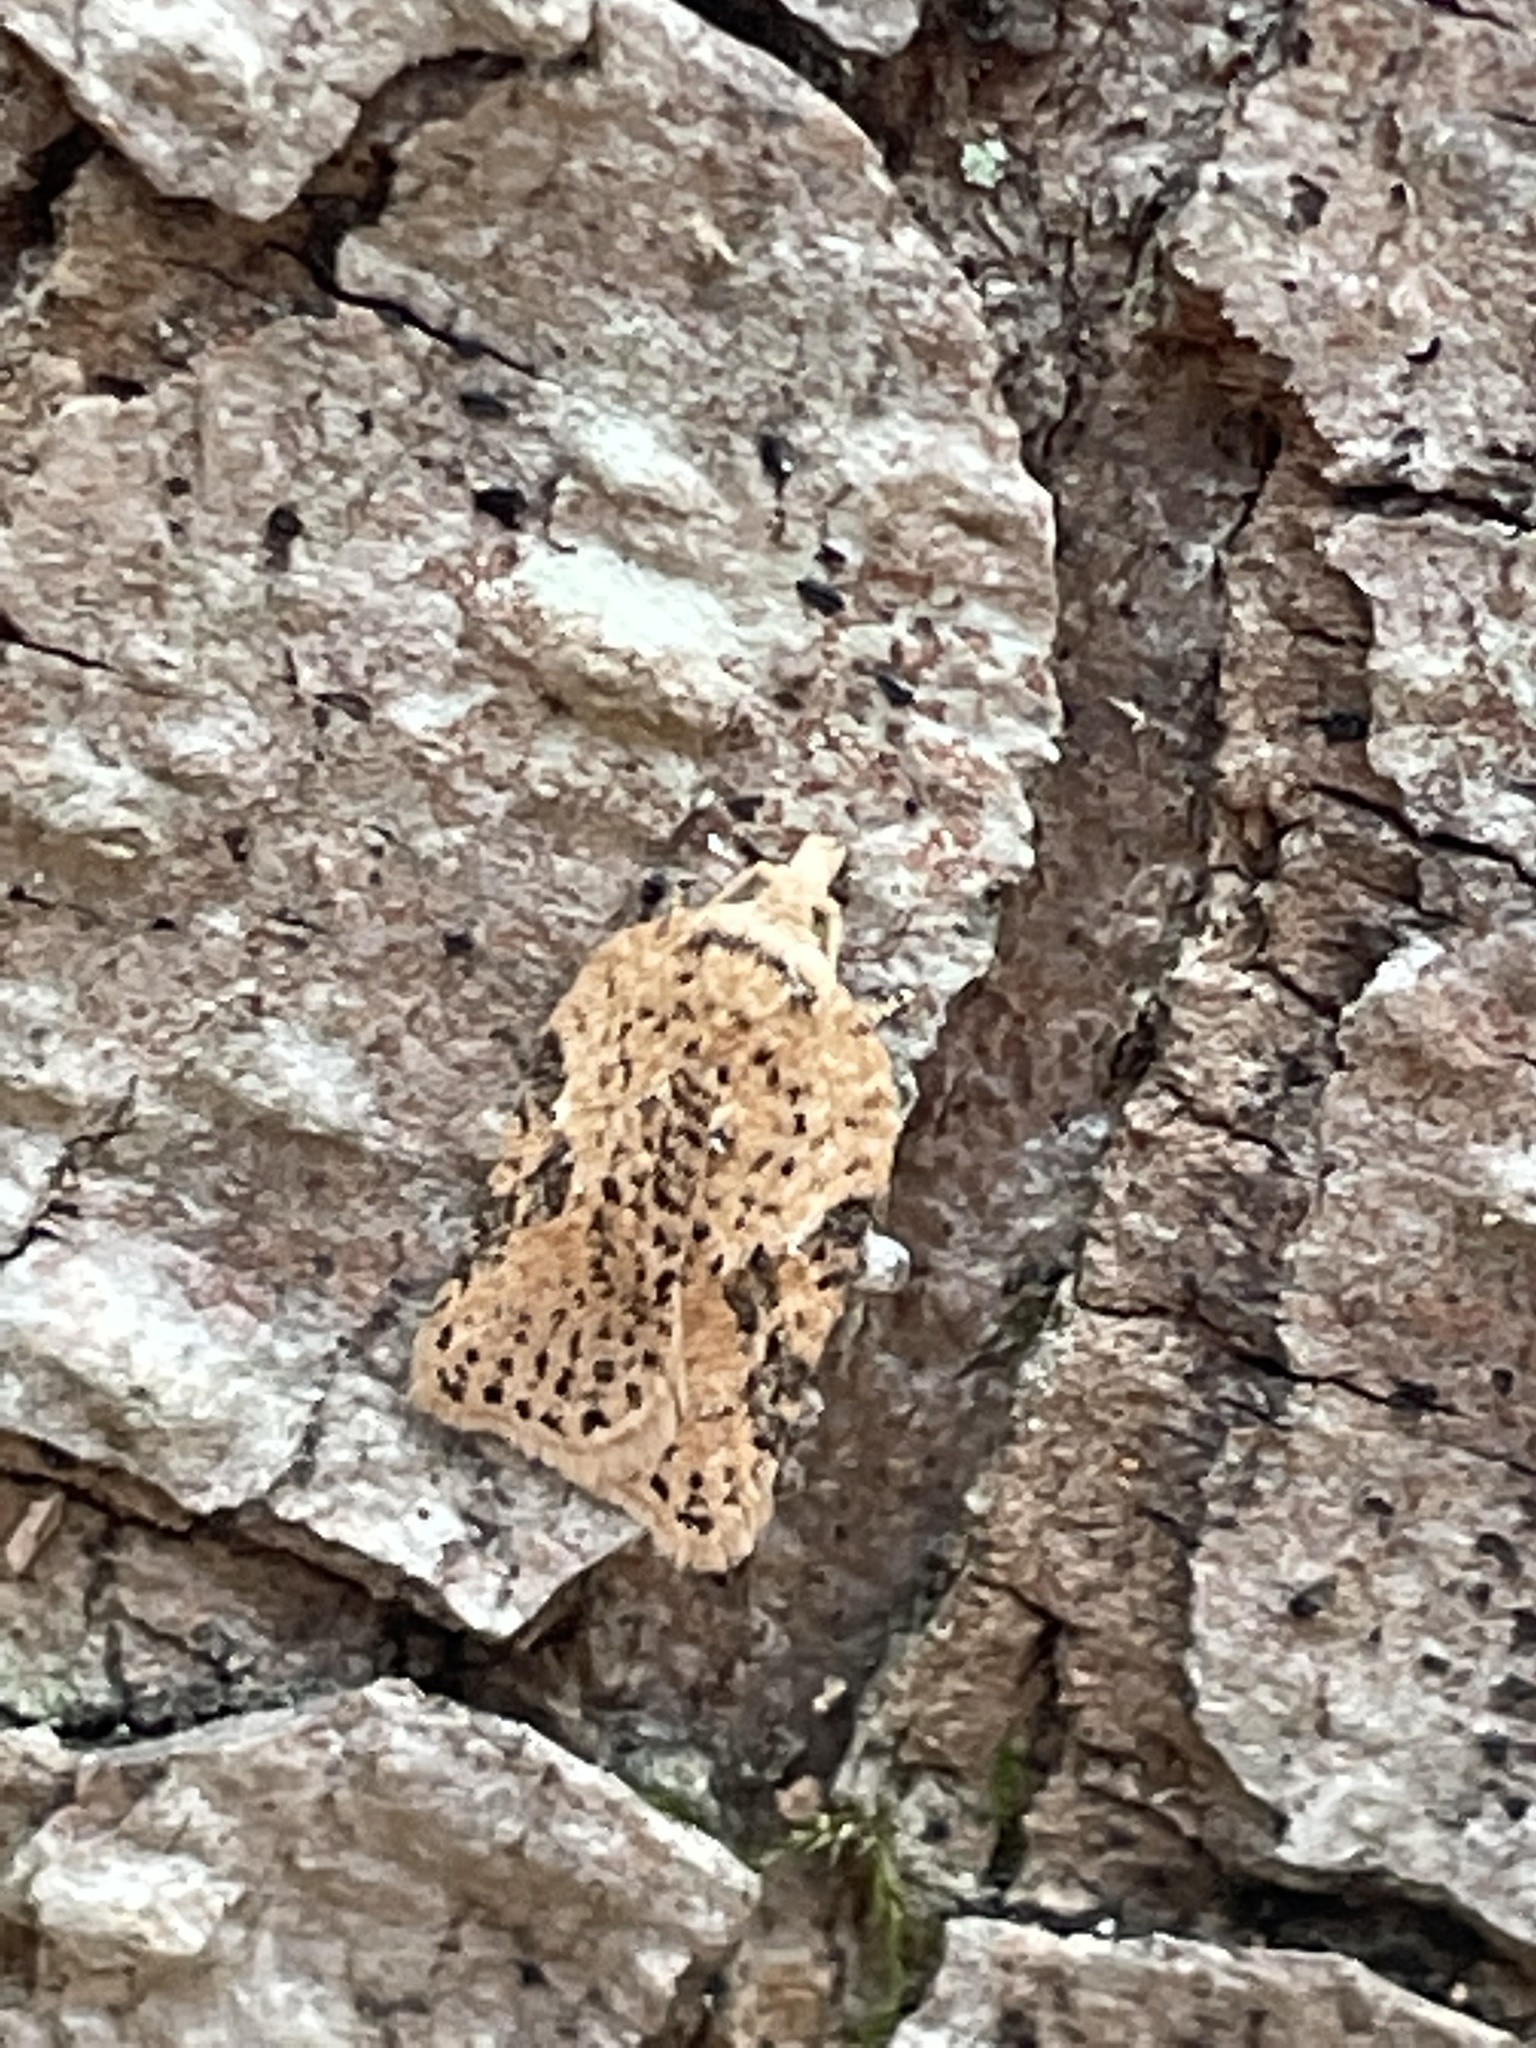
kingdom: Animalia
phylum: Arthropoda
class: Insecta
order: Lepidoptera
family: Tortricidae
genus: Acleris
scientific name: Acleris negundana
